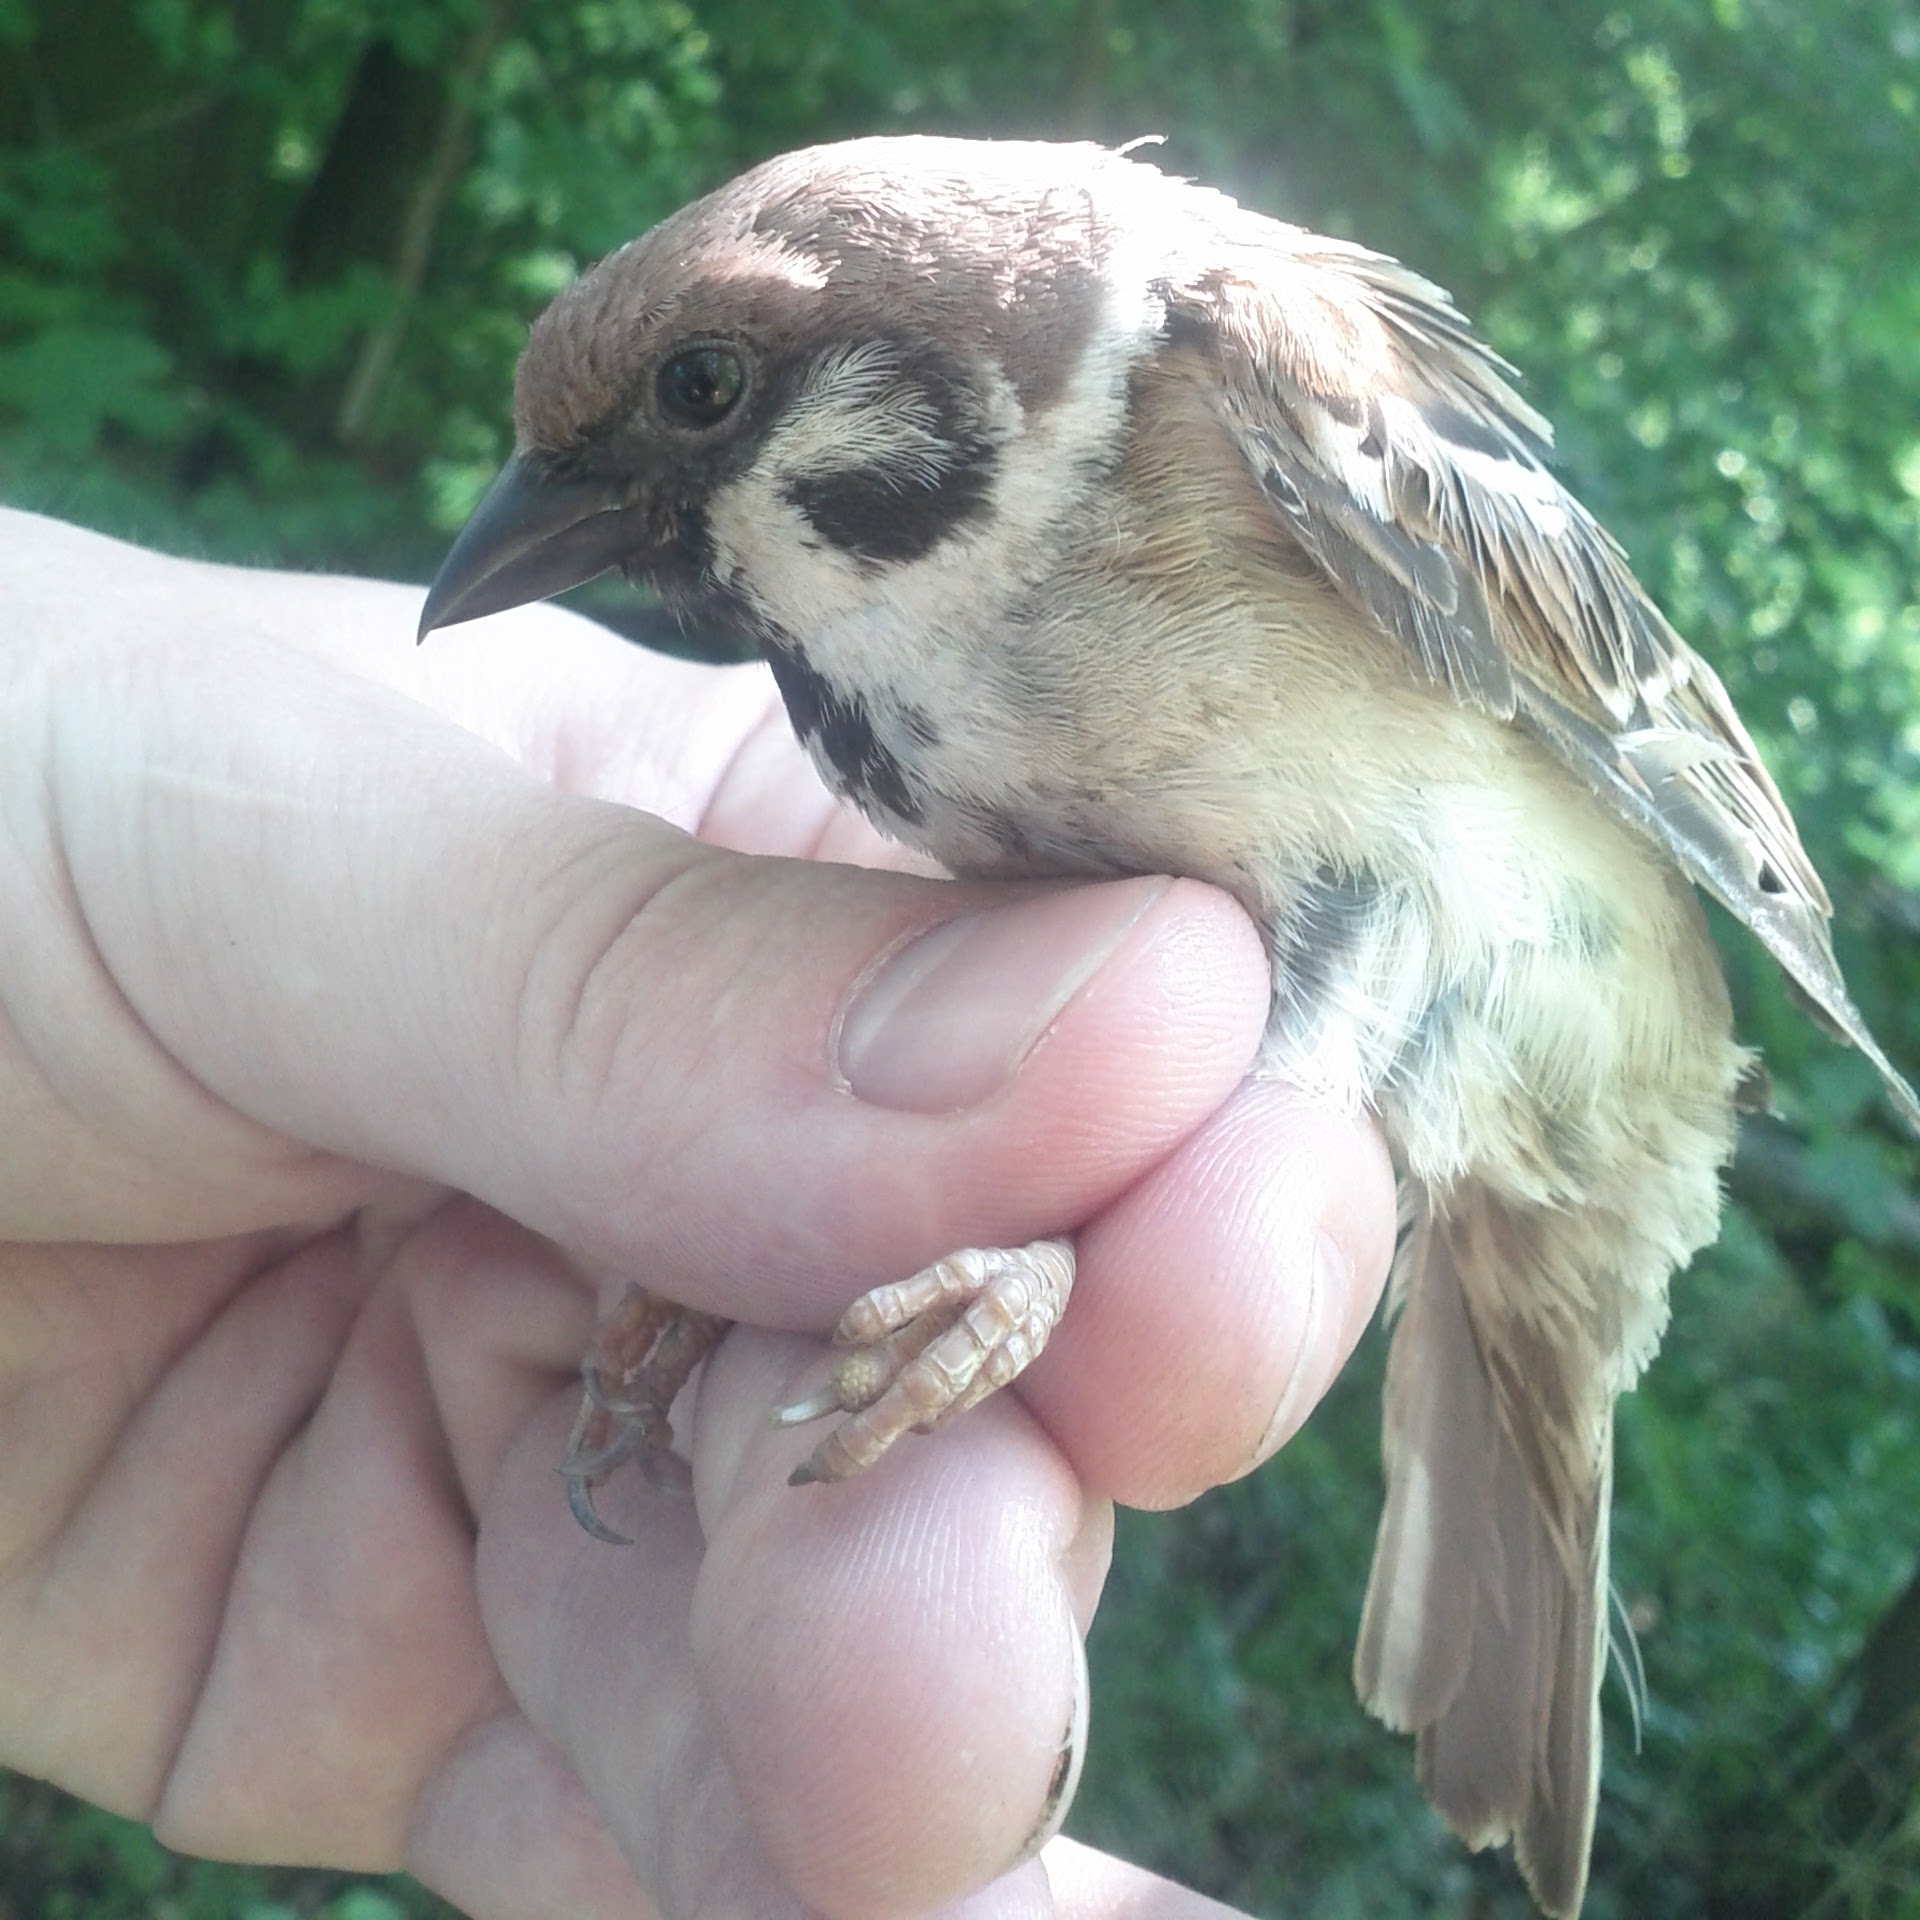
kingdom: Animalia
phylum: Chordata
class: Aves
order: Passeriformes
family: Passeridae
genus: Passer
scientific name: Passer montanus
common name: Eurasian tree sparrow
